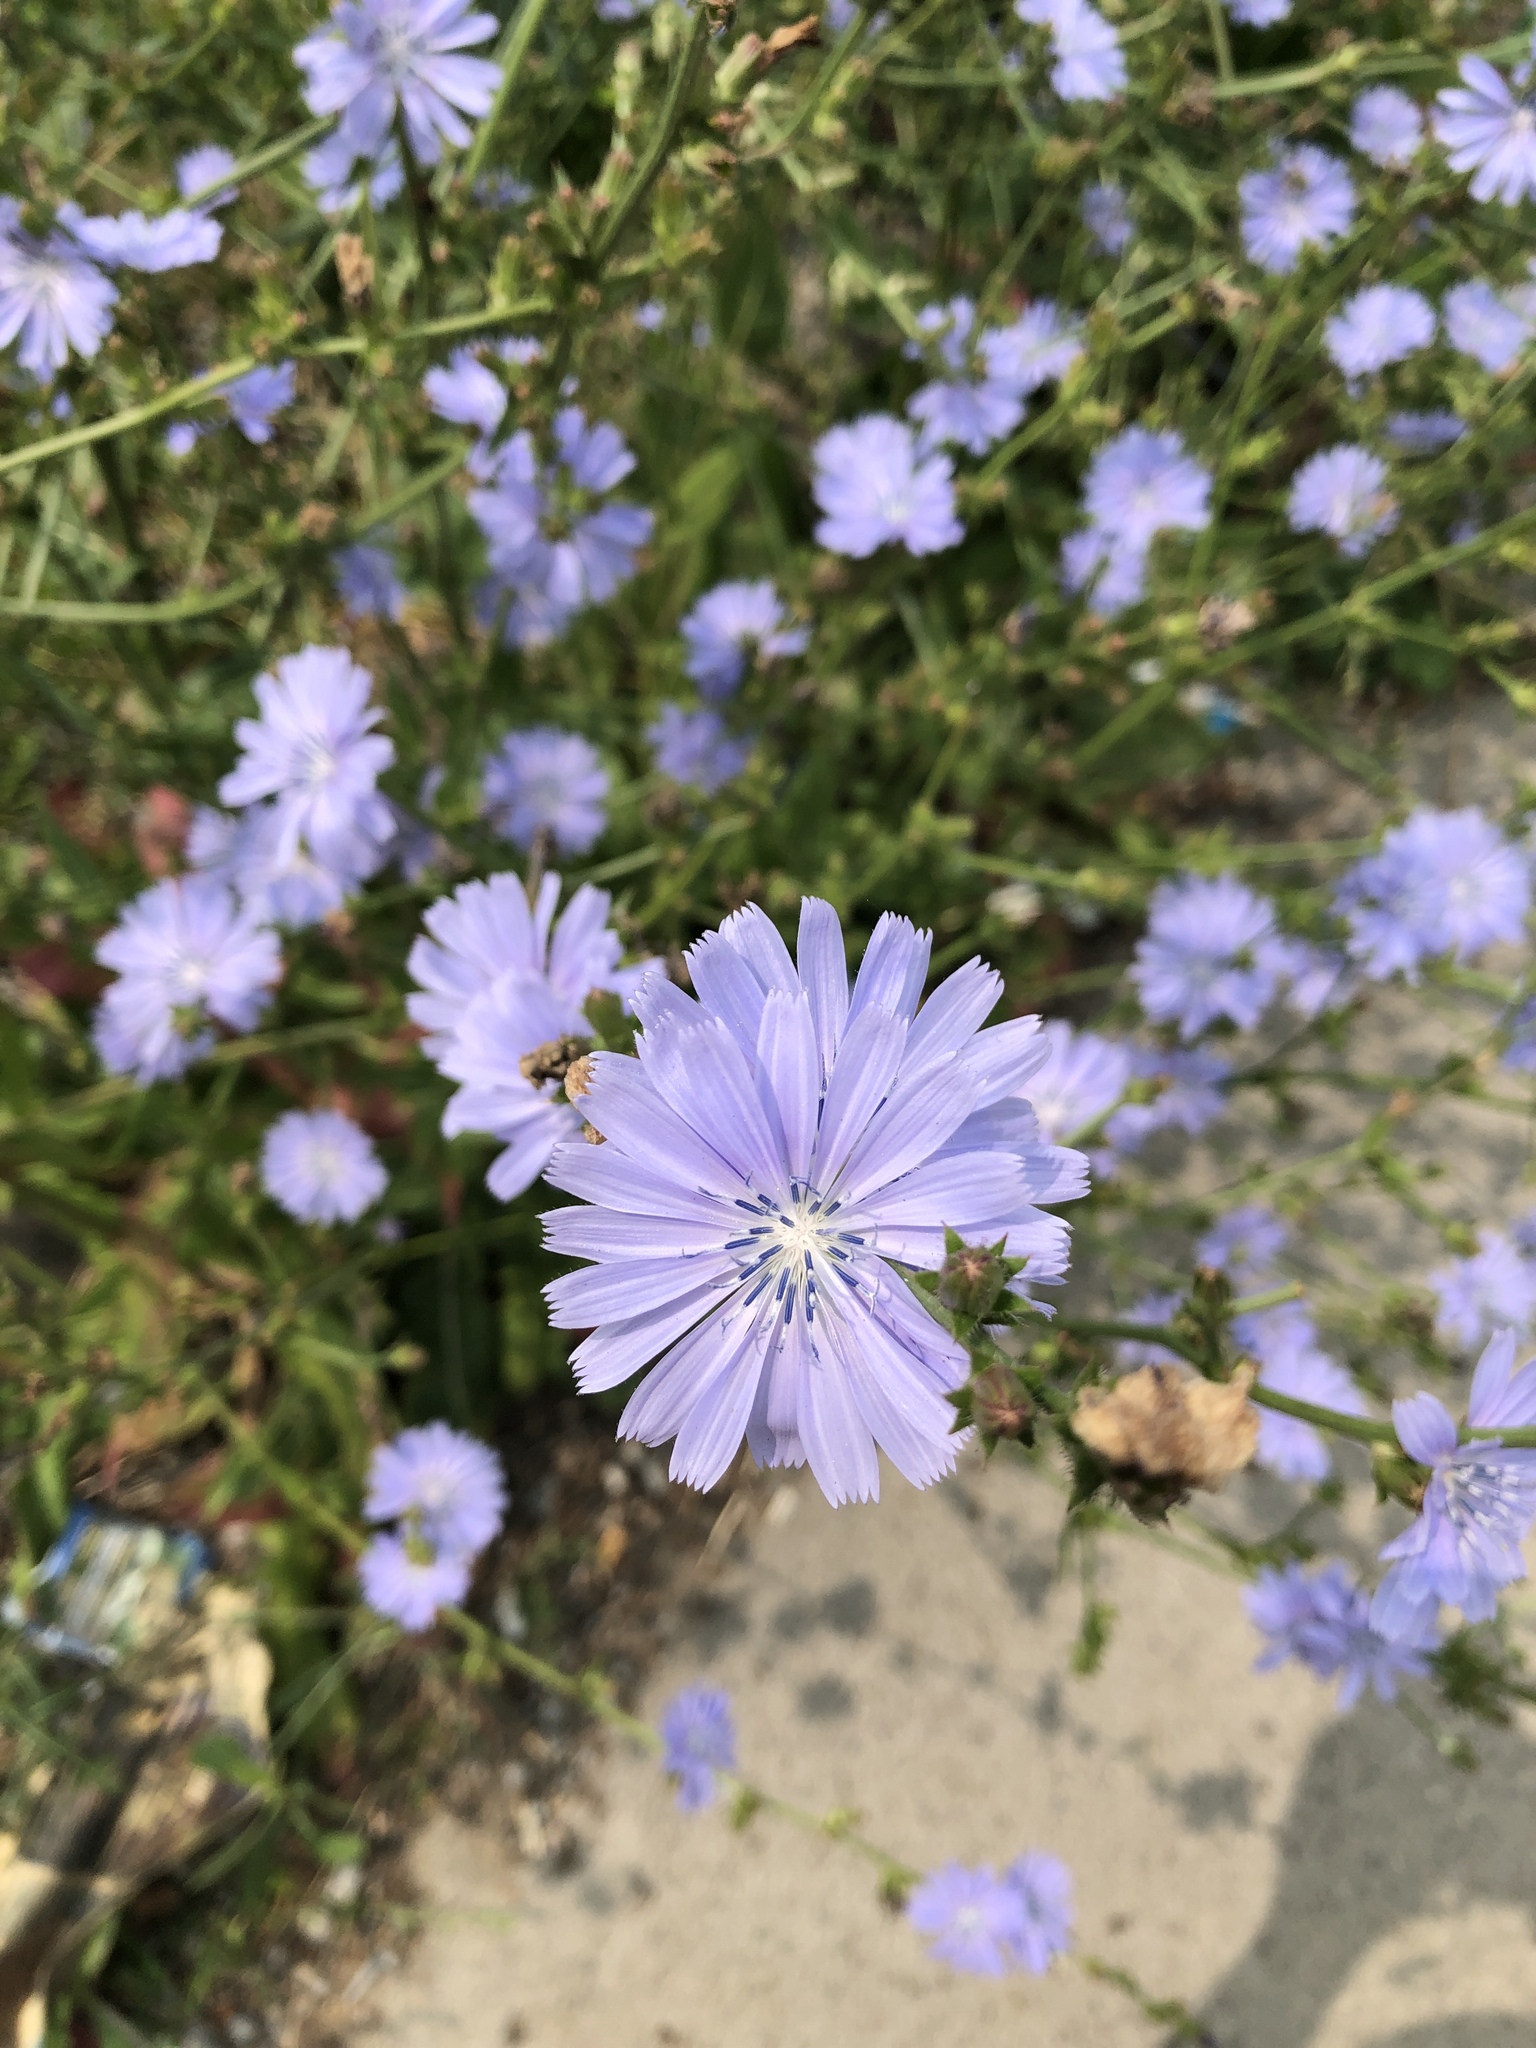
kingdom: Plantae
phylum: Tracheophyta
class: Magnoliopsida
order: Asterales
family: Asteraceae
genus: Cichorium
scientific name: Cichorium intybus
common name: Chicory
